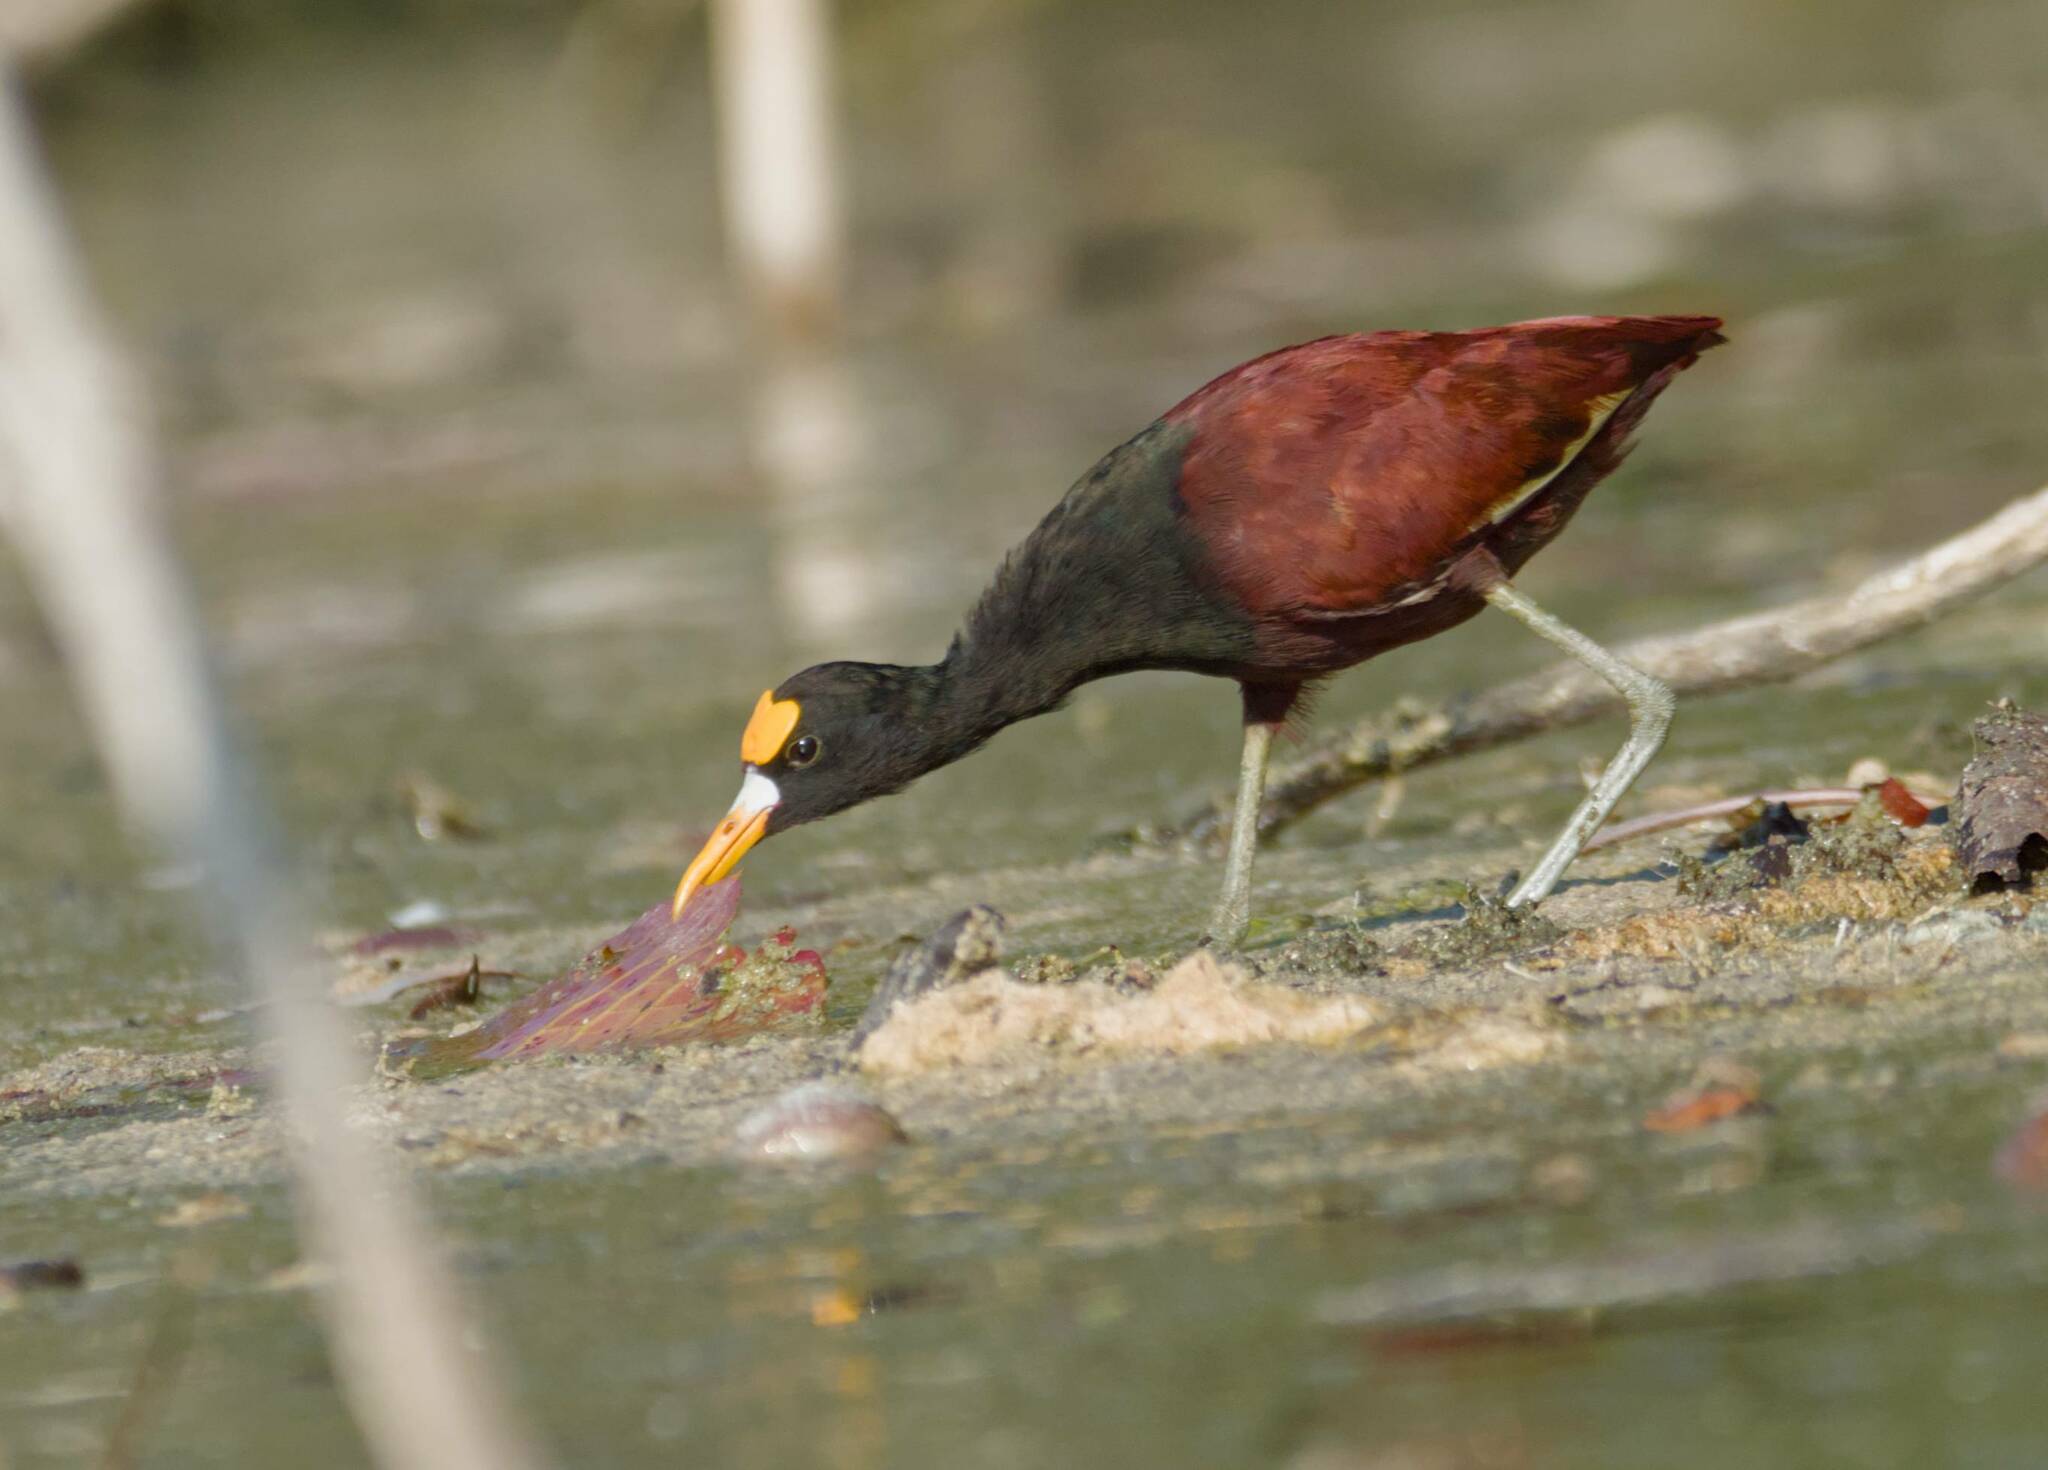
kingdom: Animalia
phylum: Chordata
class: Aves
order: Charadriiformes
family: Jacanidae
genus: Jacana
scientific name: Jacana spinosa
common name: Northern jacana
